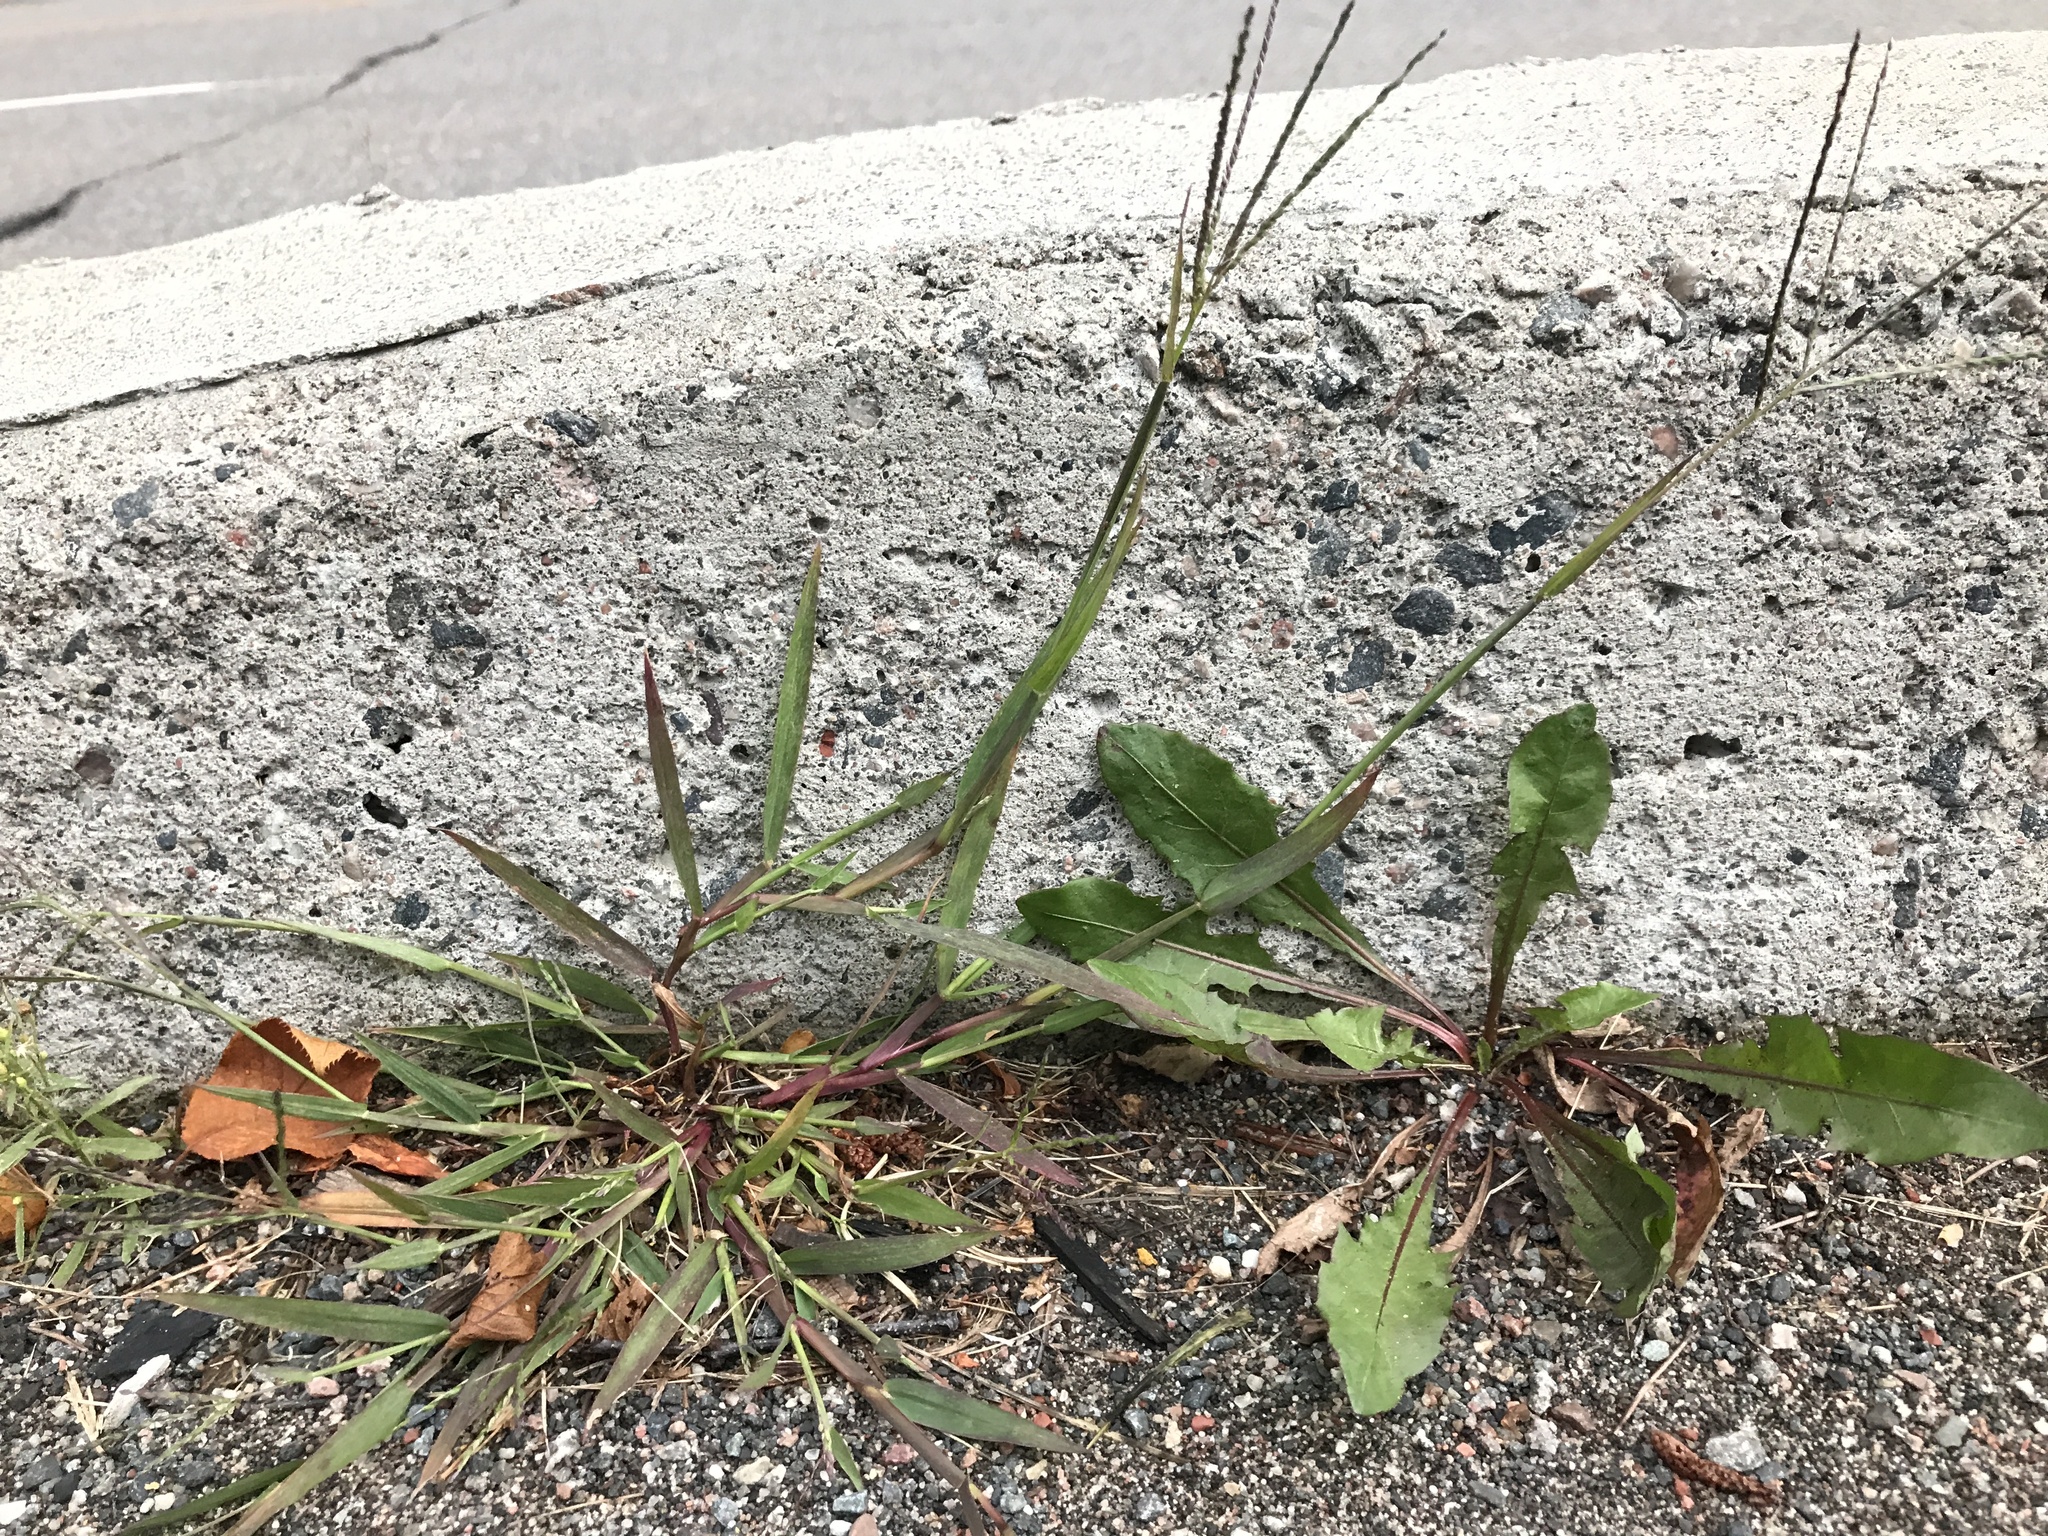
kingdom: Plantae
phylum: Tracheophyta
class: Liliopsida
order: Poales
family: Poaceae
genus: Digitaria
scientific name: Digitaria ischaemum
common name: Smooth crabgrass
